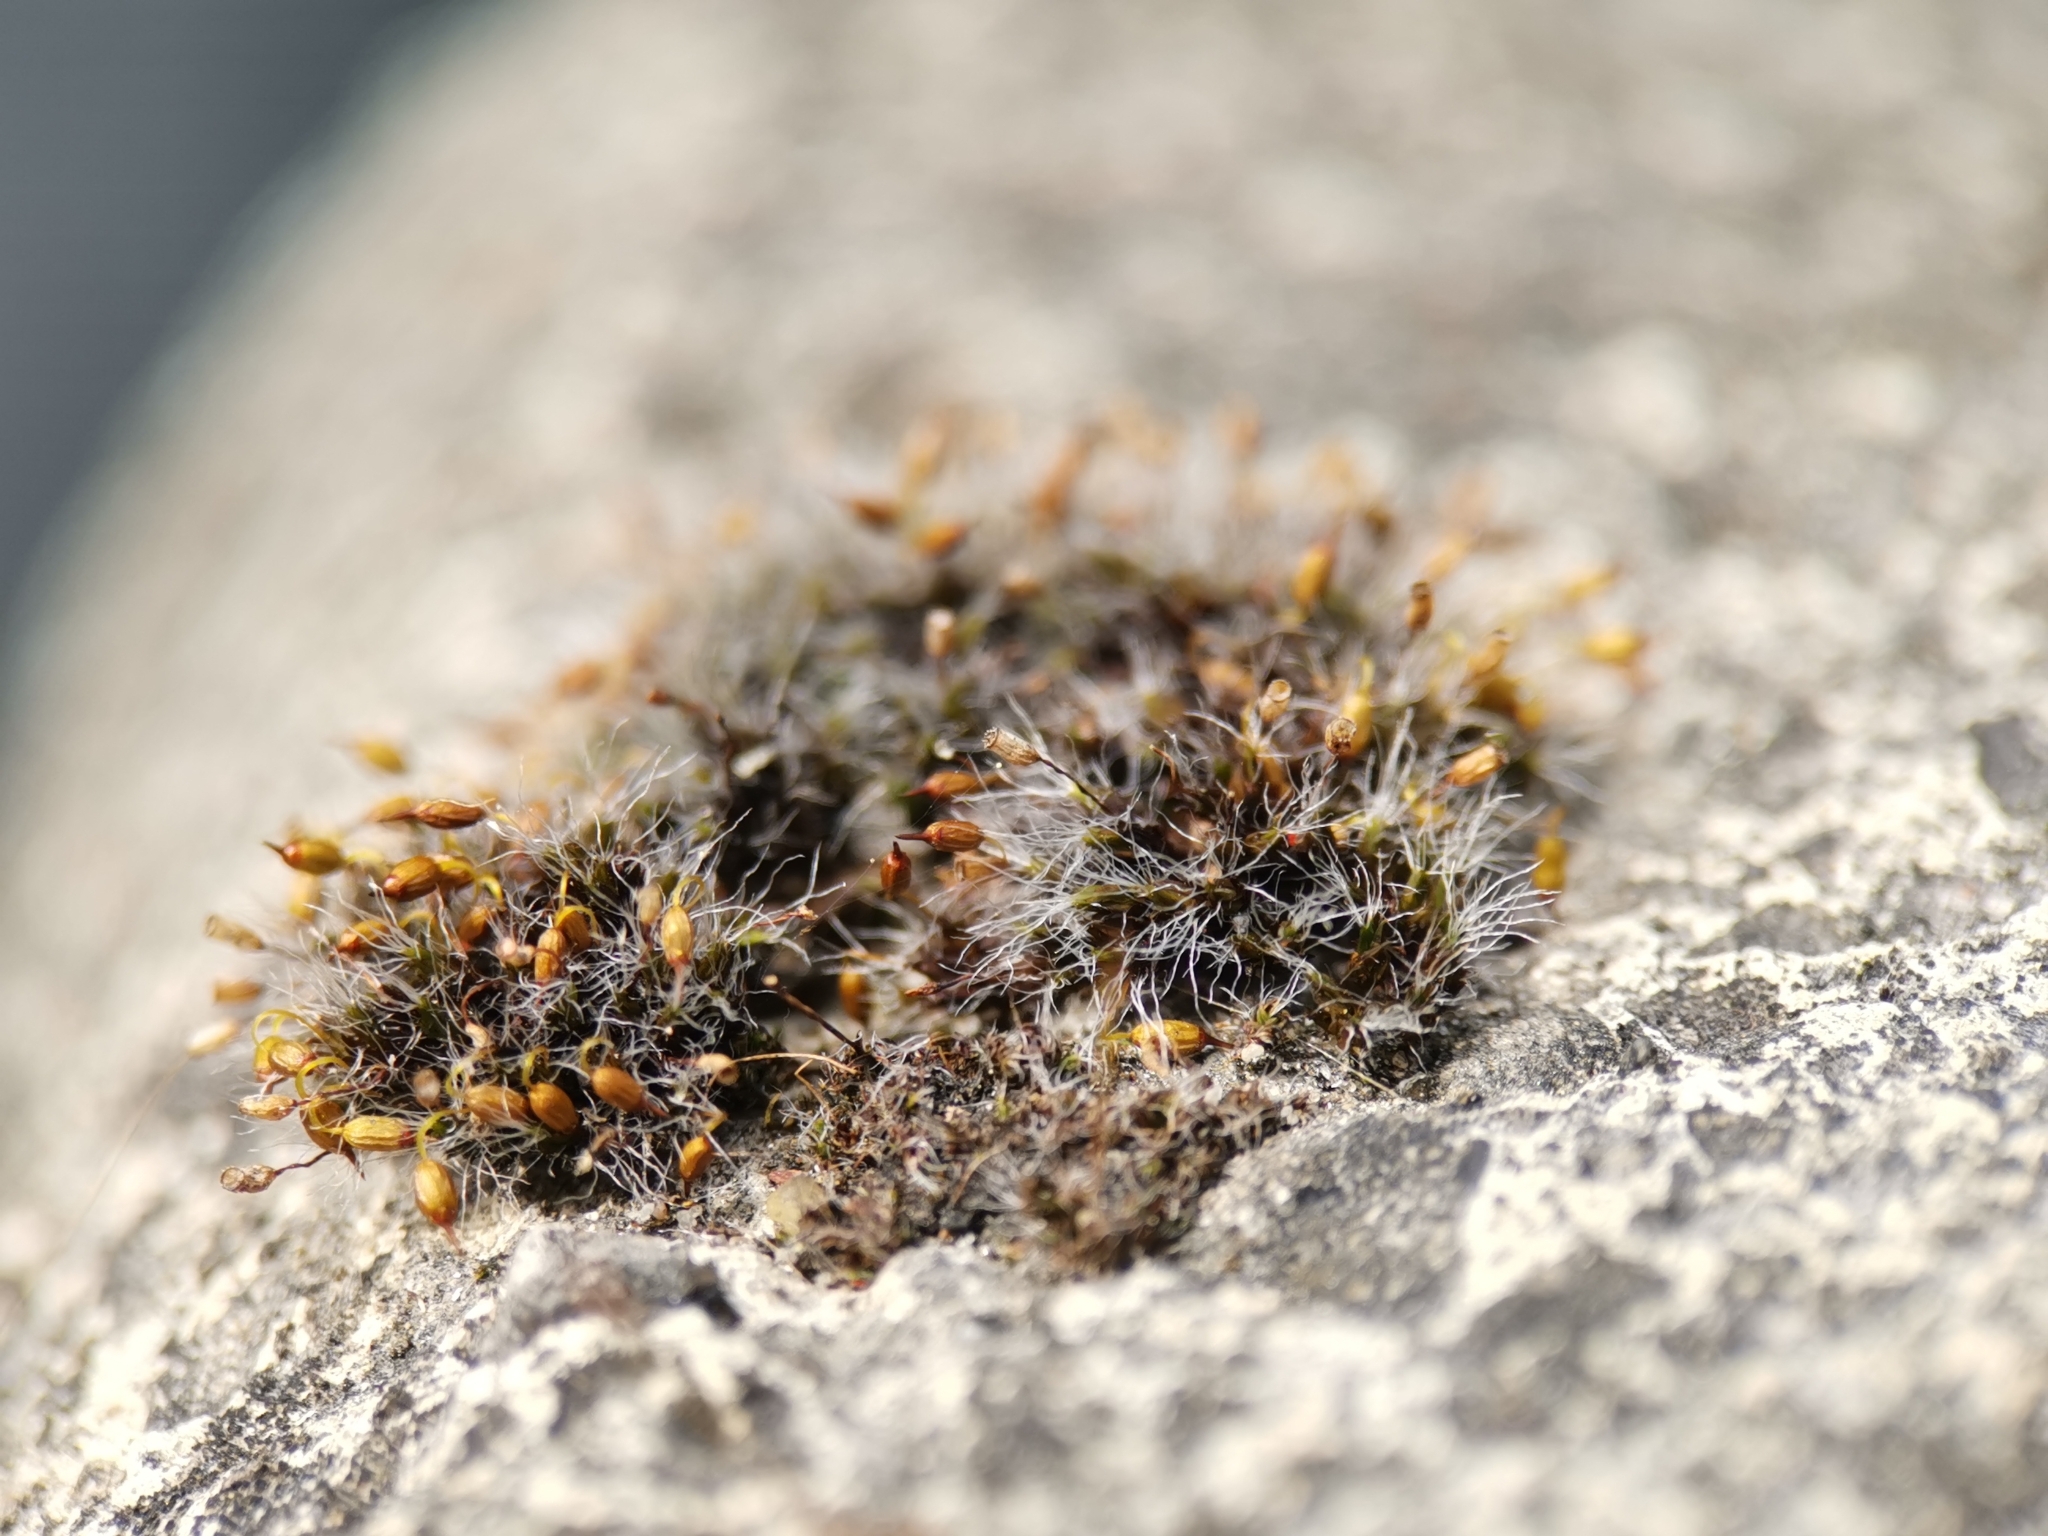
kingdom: Plantae
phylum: Bryophyta
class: Bryopsida
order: Grimmiales
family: Grimmiaceae
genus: Grimmia
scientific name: Grimmia pulvinata
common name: Grey-cushioned grimmia
